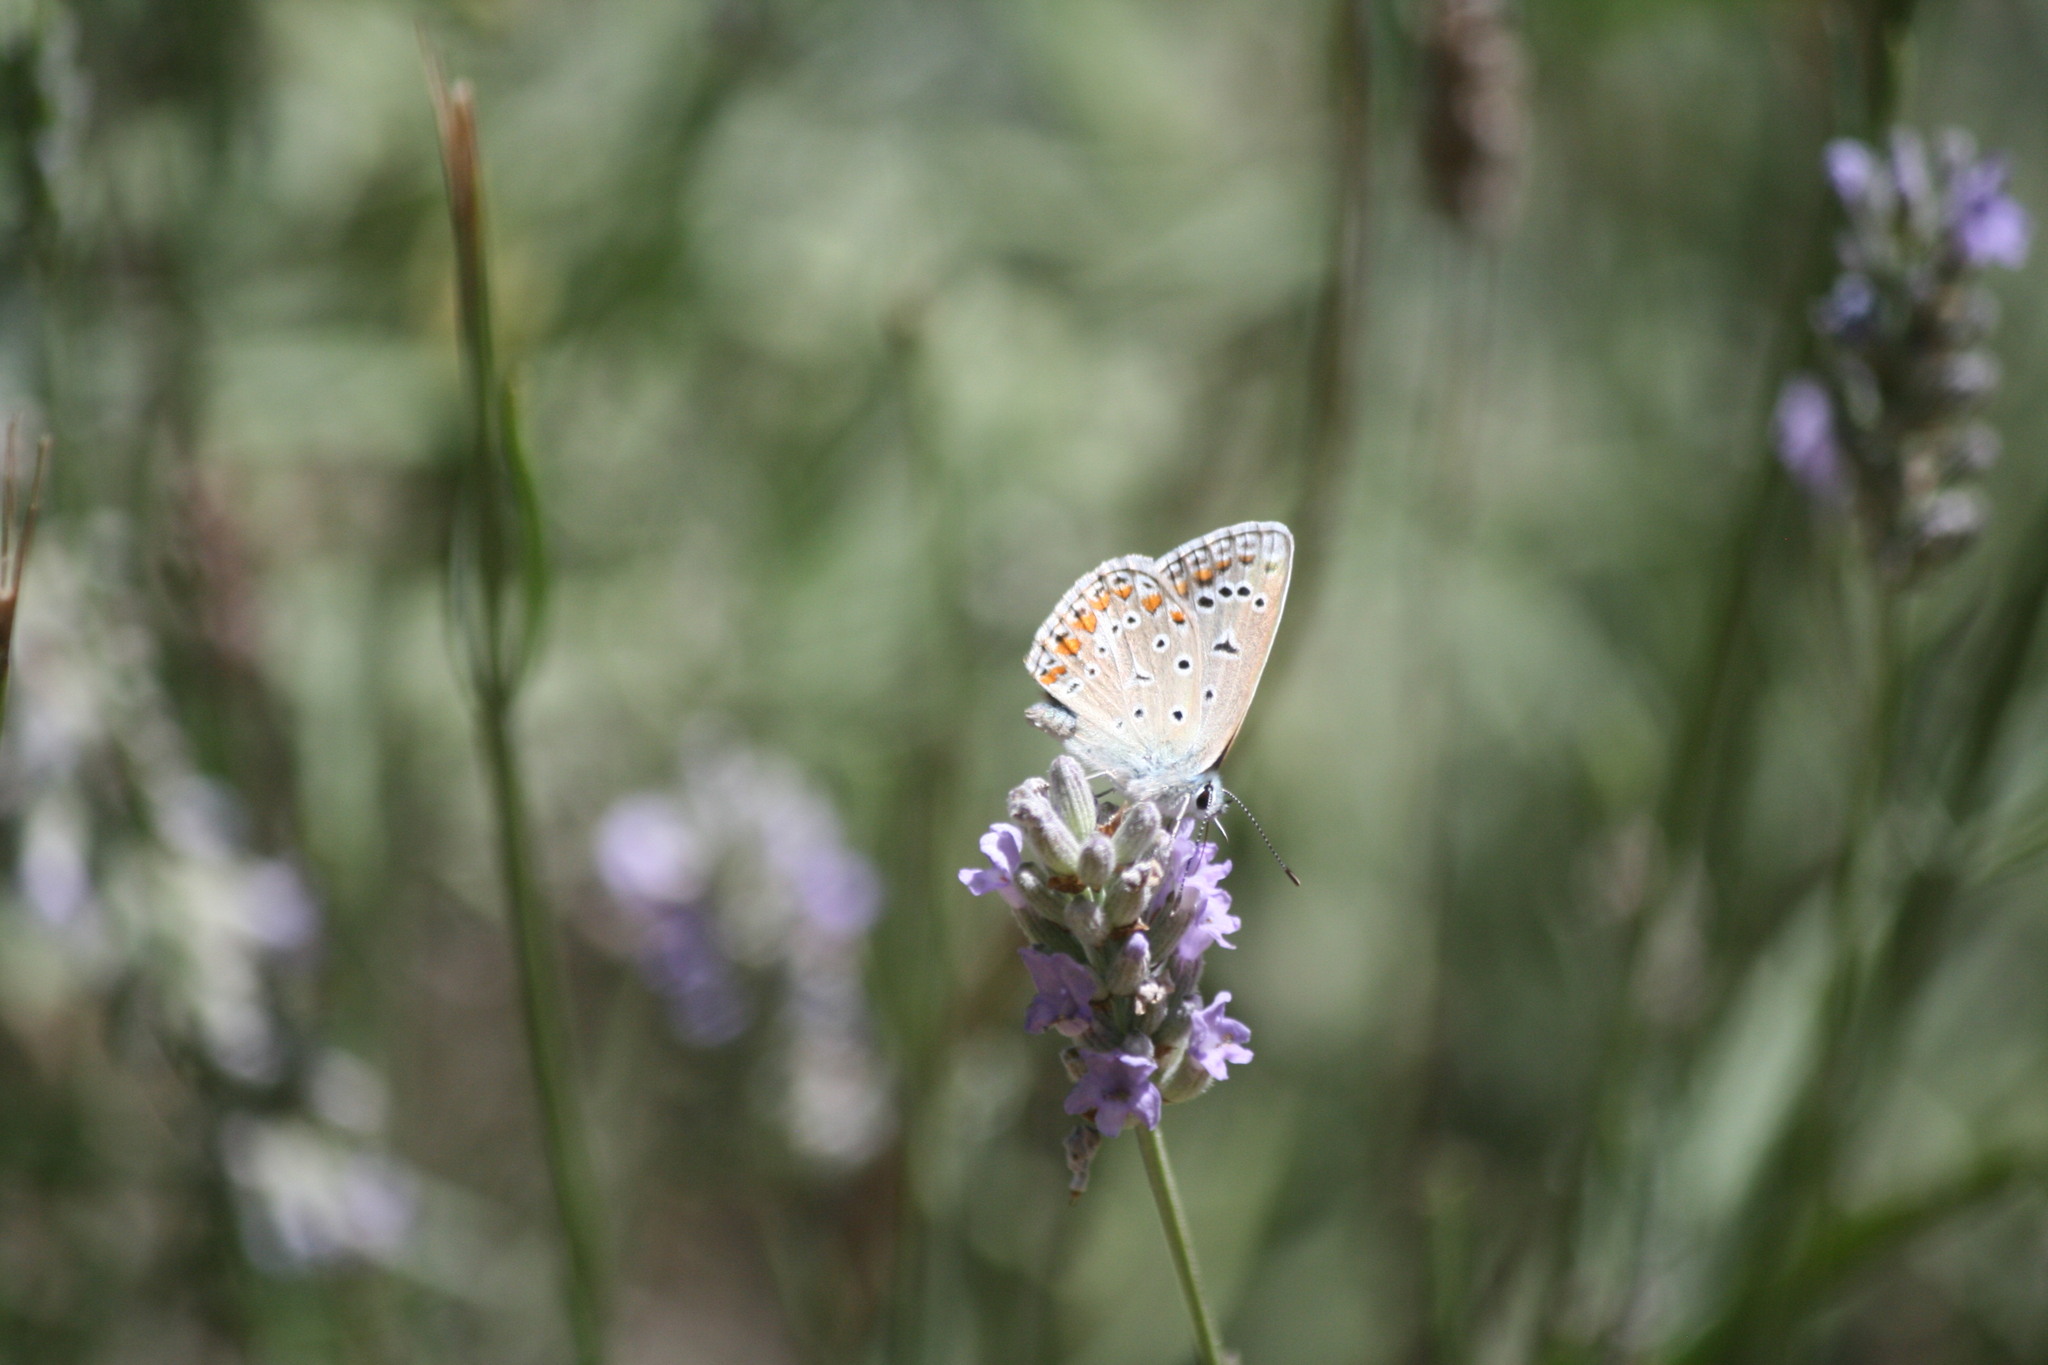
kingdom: Animalia
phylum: Arthropoda
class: Insecta
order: Lepidoptera
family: Lycaenidae
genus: Polyommatus
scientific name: Polyommatus celina
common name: Austaut's blue
